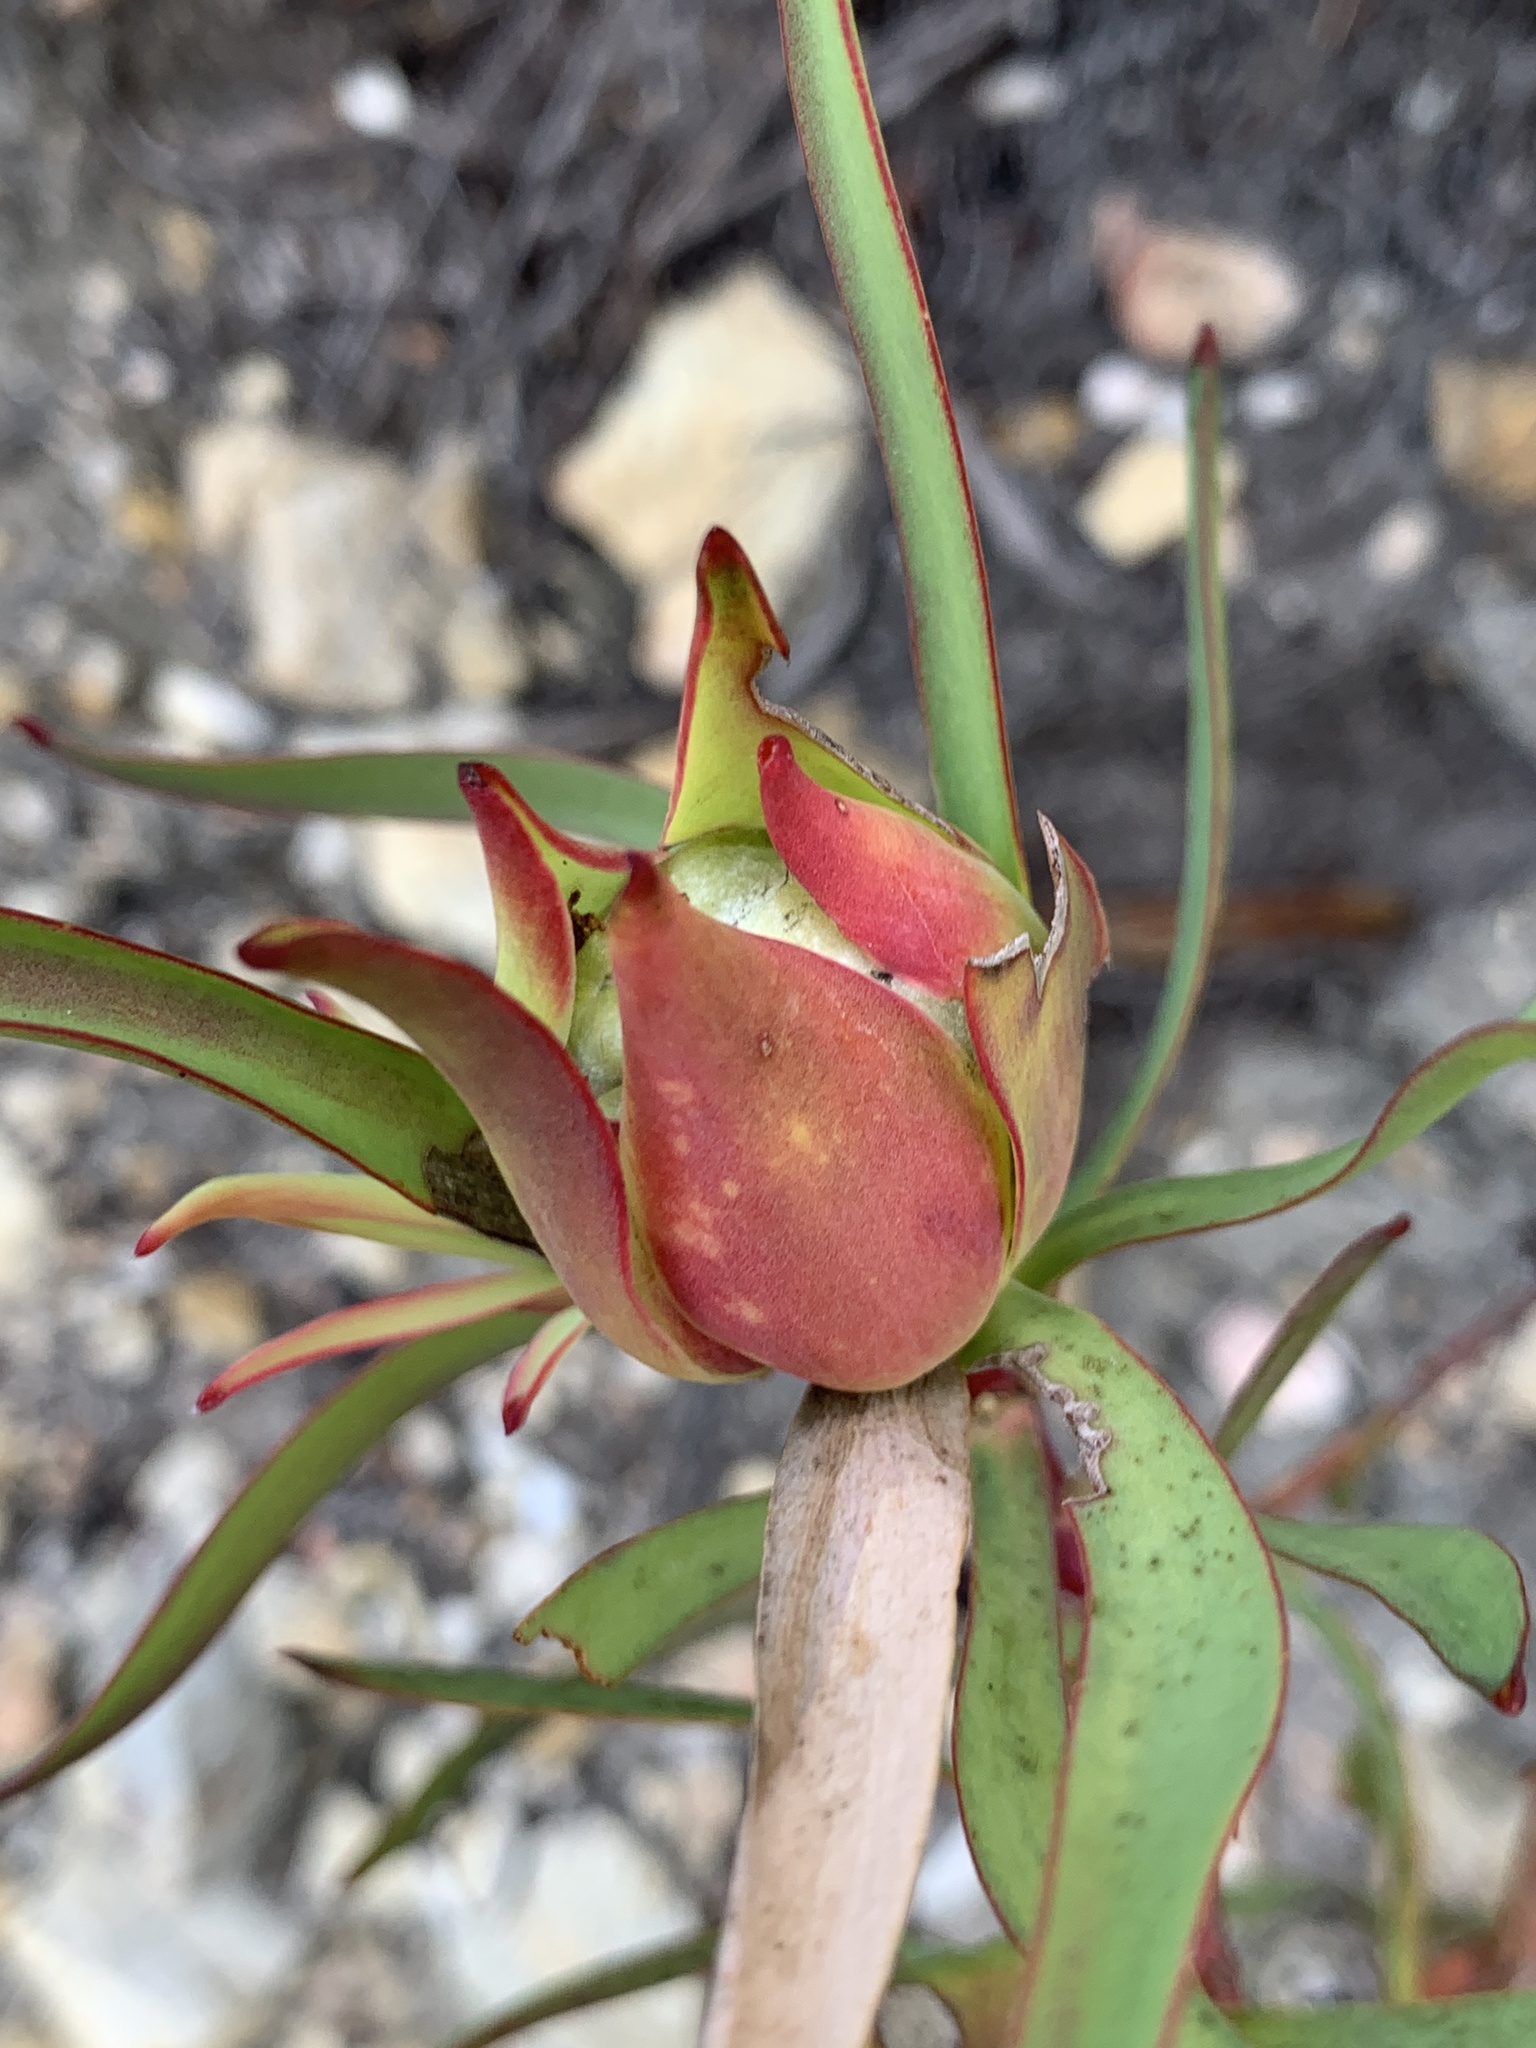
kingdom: Plantae
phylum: Tracheophyta
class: Magnoliopsida
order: Proteales
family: Proteaceae
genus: Leucadendron
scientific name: Leucadendron salignum
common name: Common sunshine conebush
